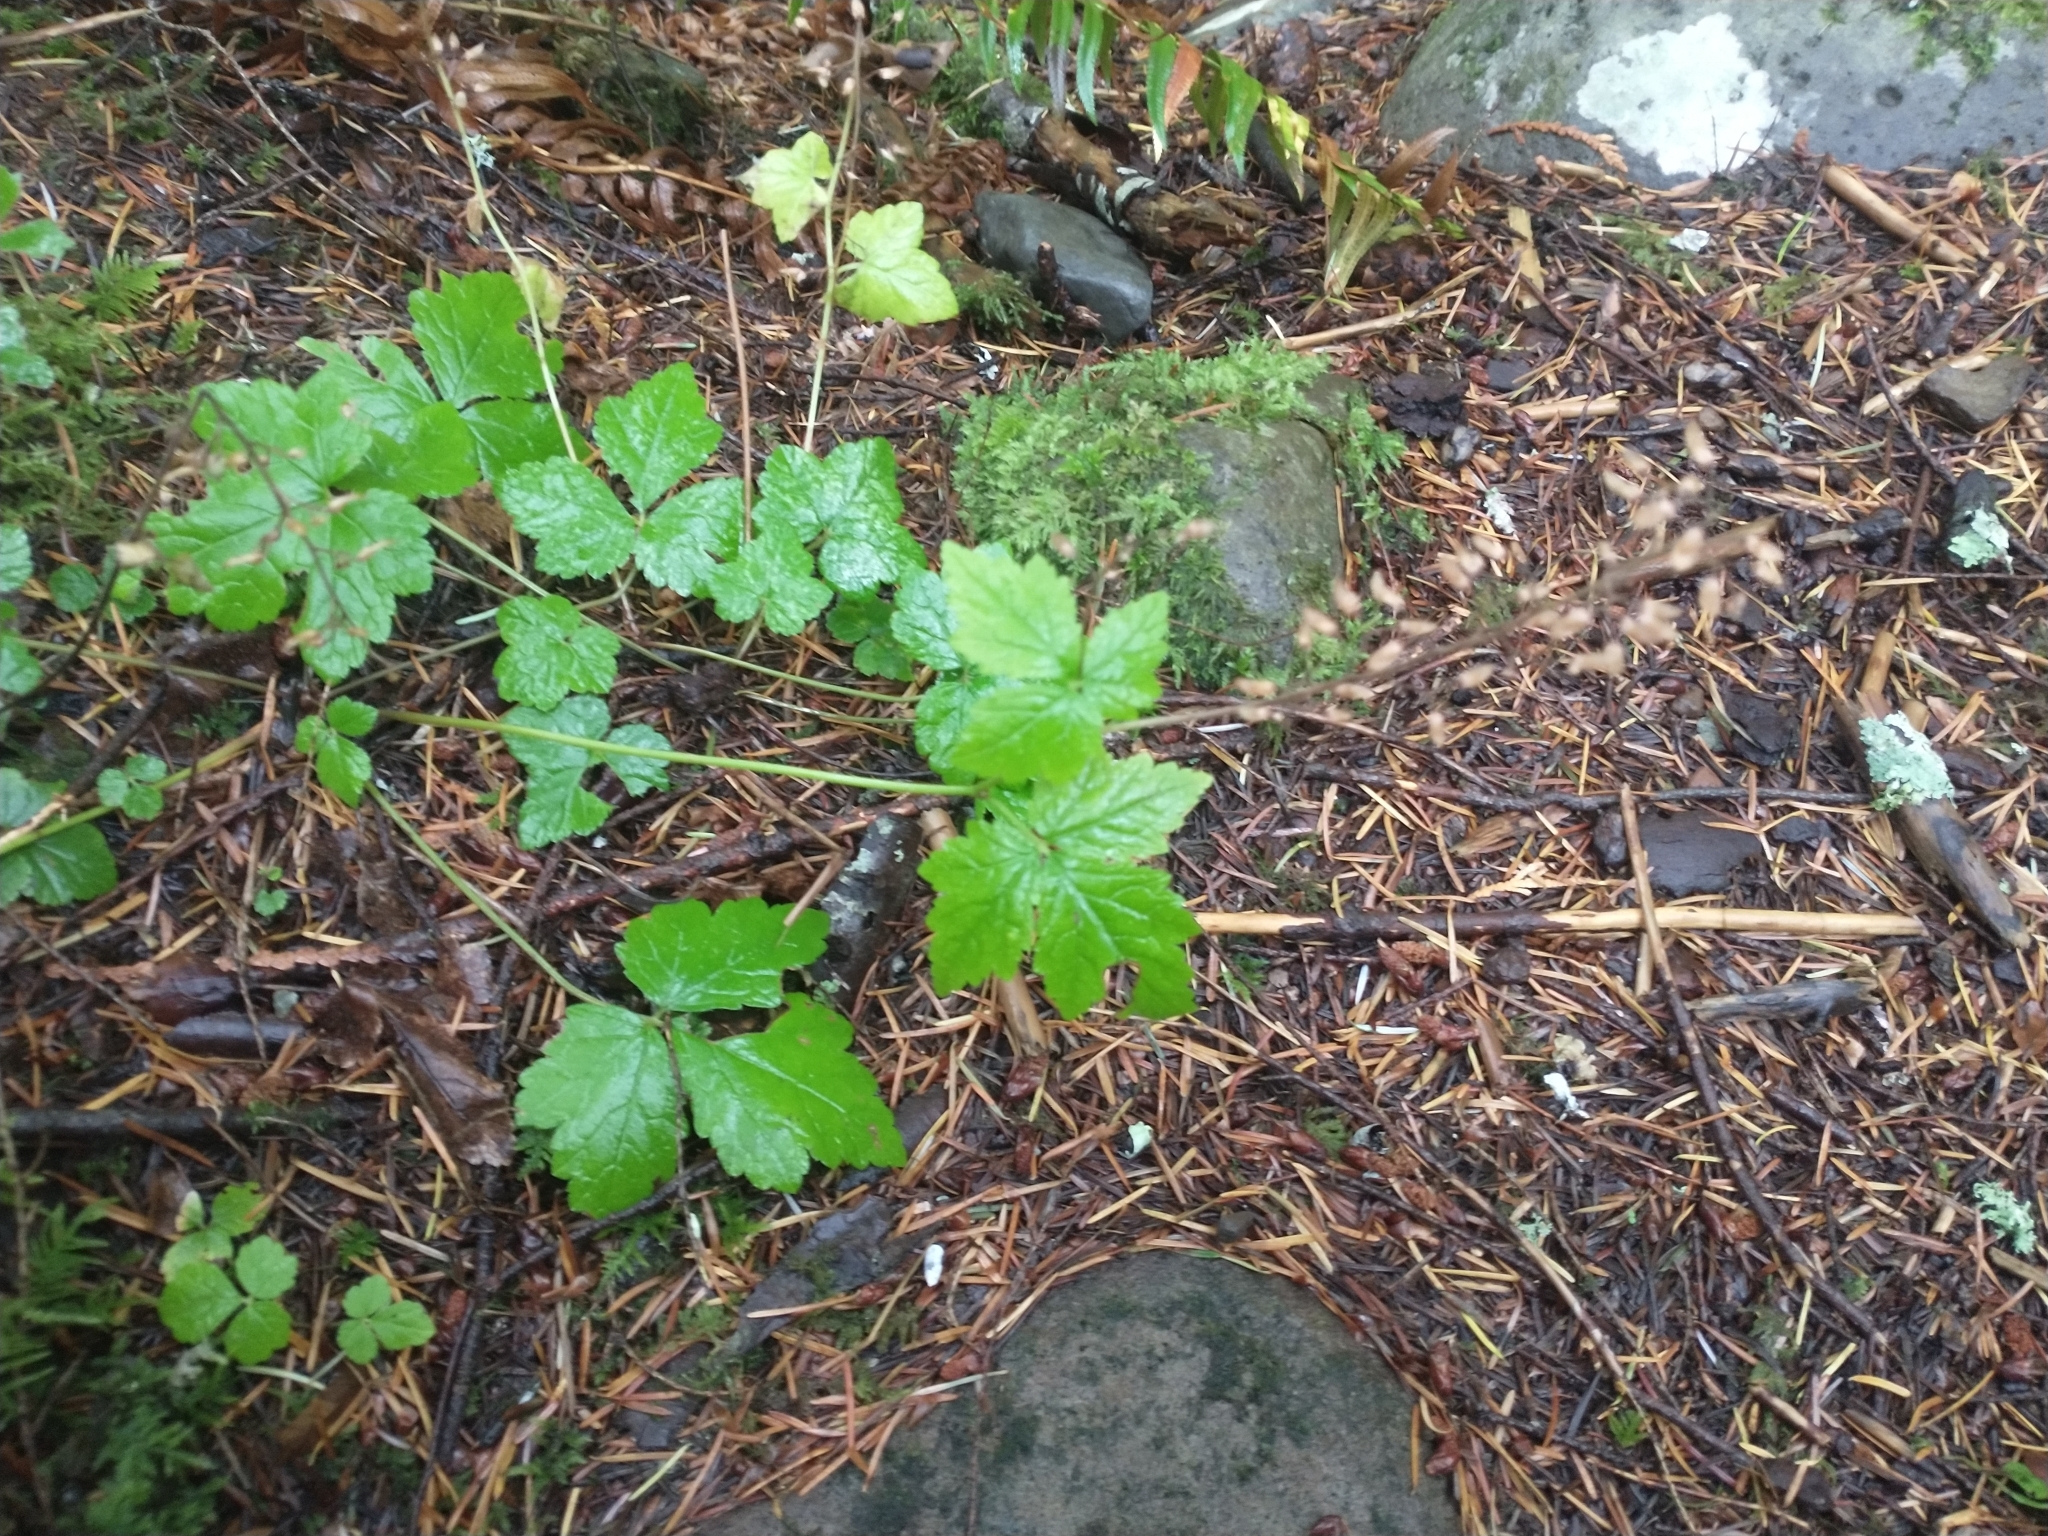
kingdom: Plantae
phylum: Tracheophyta
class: Magnoliopsida
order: Saxifragales
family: Saxifragaceae
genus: Tiarella
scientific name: Tiarella trifoliata
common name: Sugar-scoop
